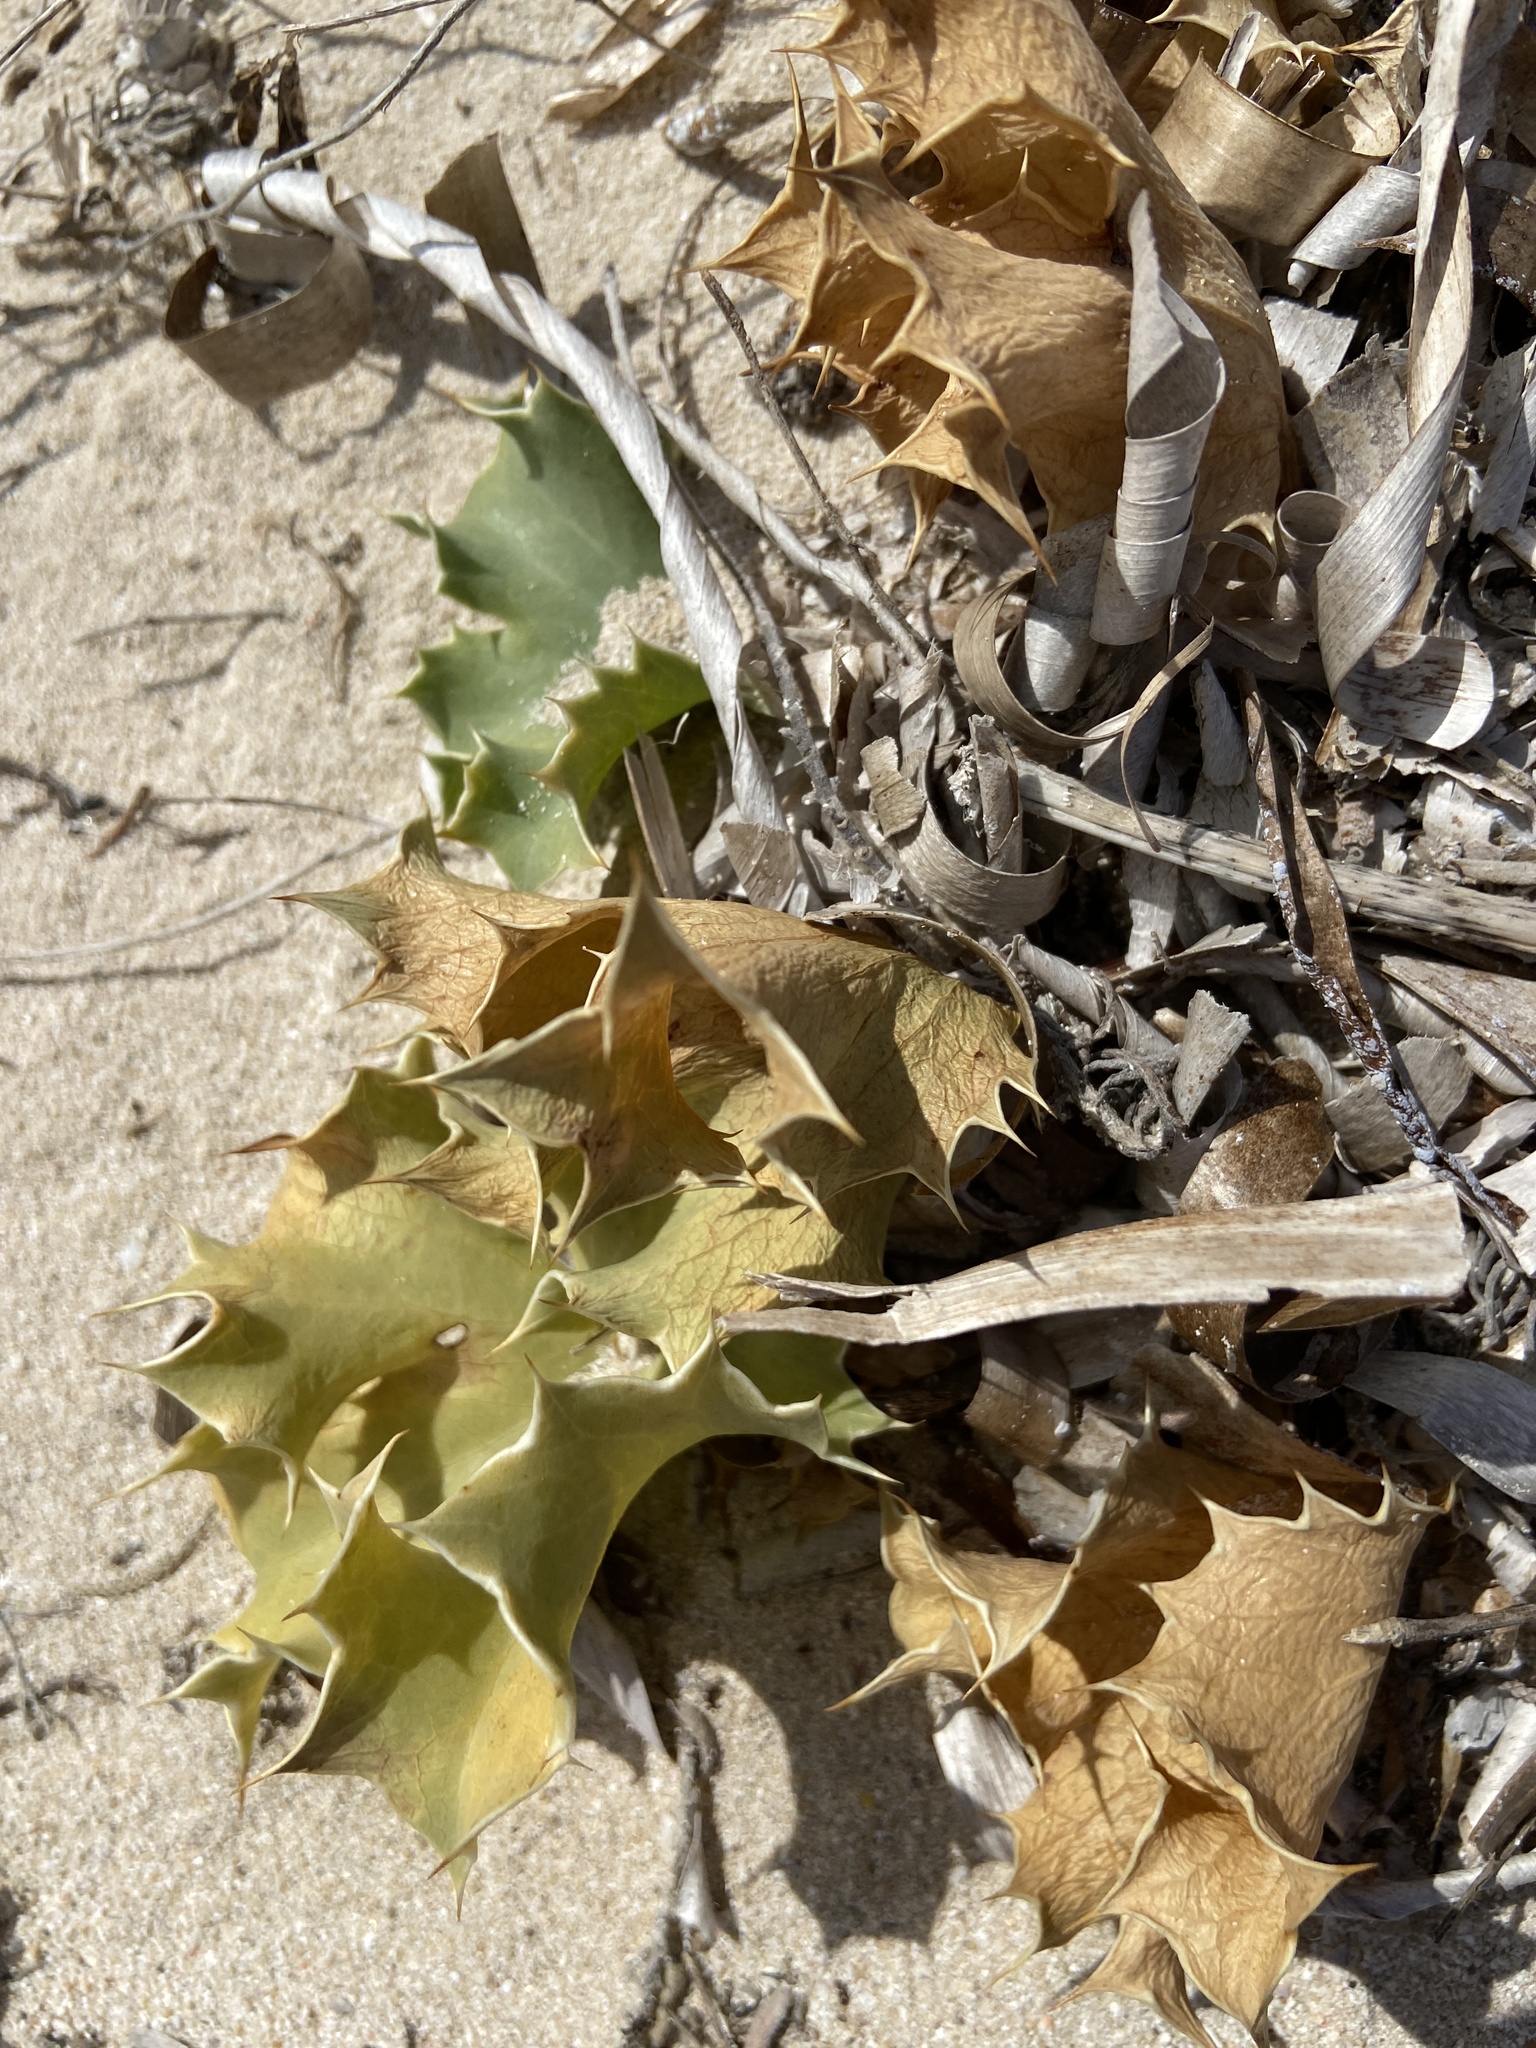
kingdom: Plantae
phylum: Tracheophyta
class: Magnoliopsida
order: Apiales
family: Apiaceae
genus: Eryngium
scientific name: Eryngium maritimum
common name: Sea-holly
